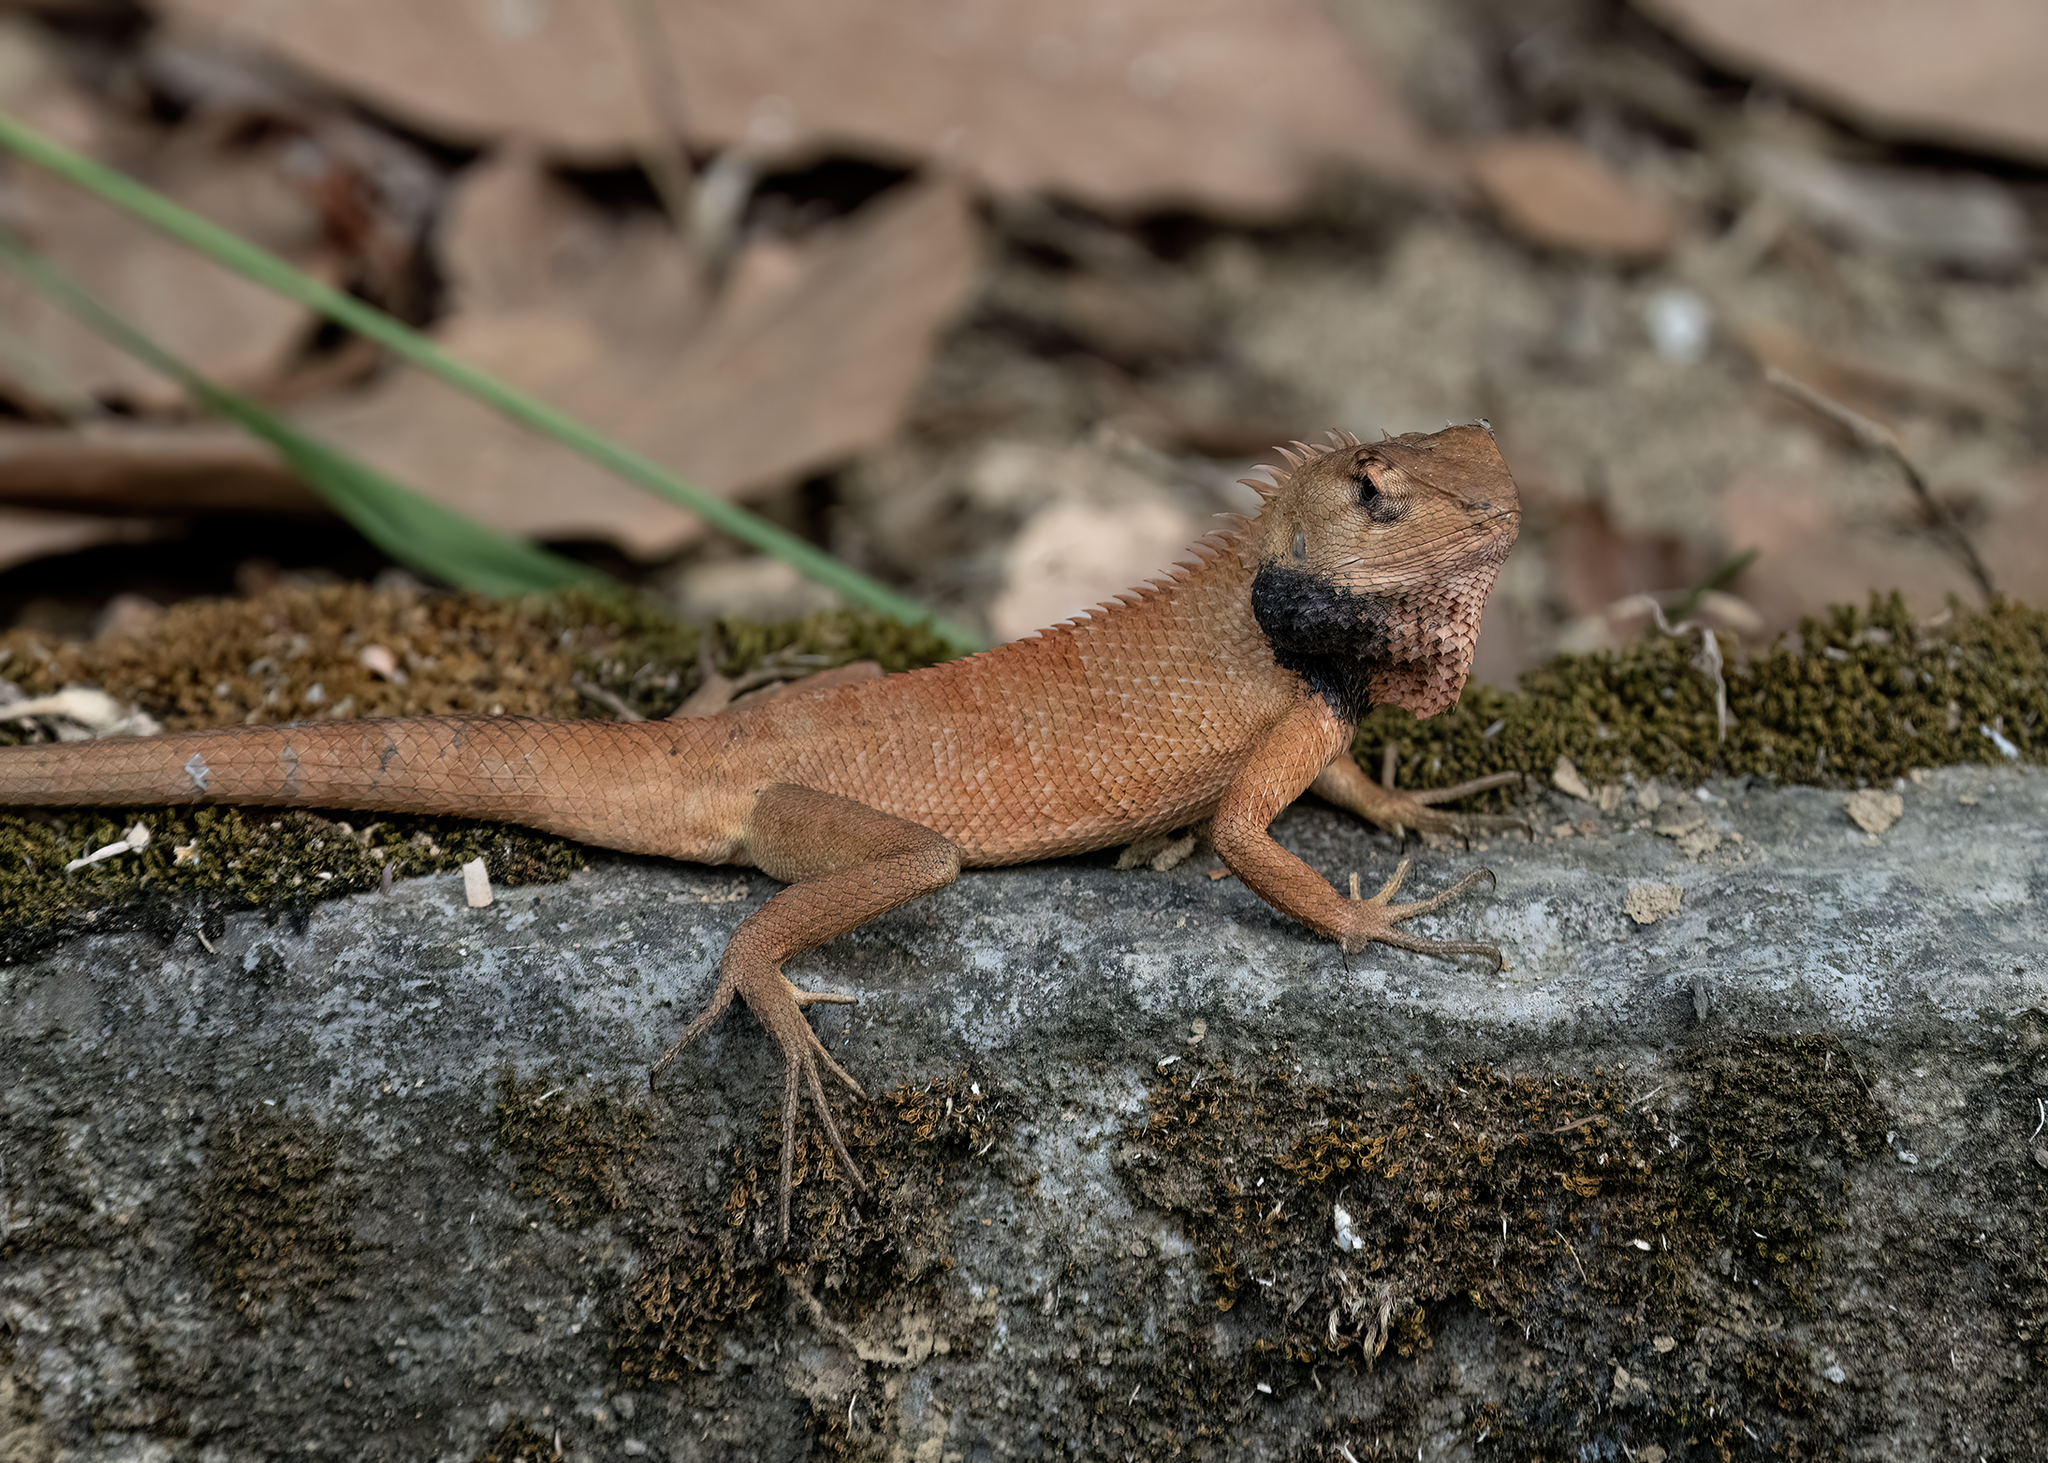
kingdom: Animalia
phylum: Chordata
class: Squamata
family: Agamidae
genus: Calotes
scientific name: Calotes versicolor
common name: Oriental garden lizard
